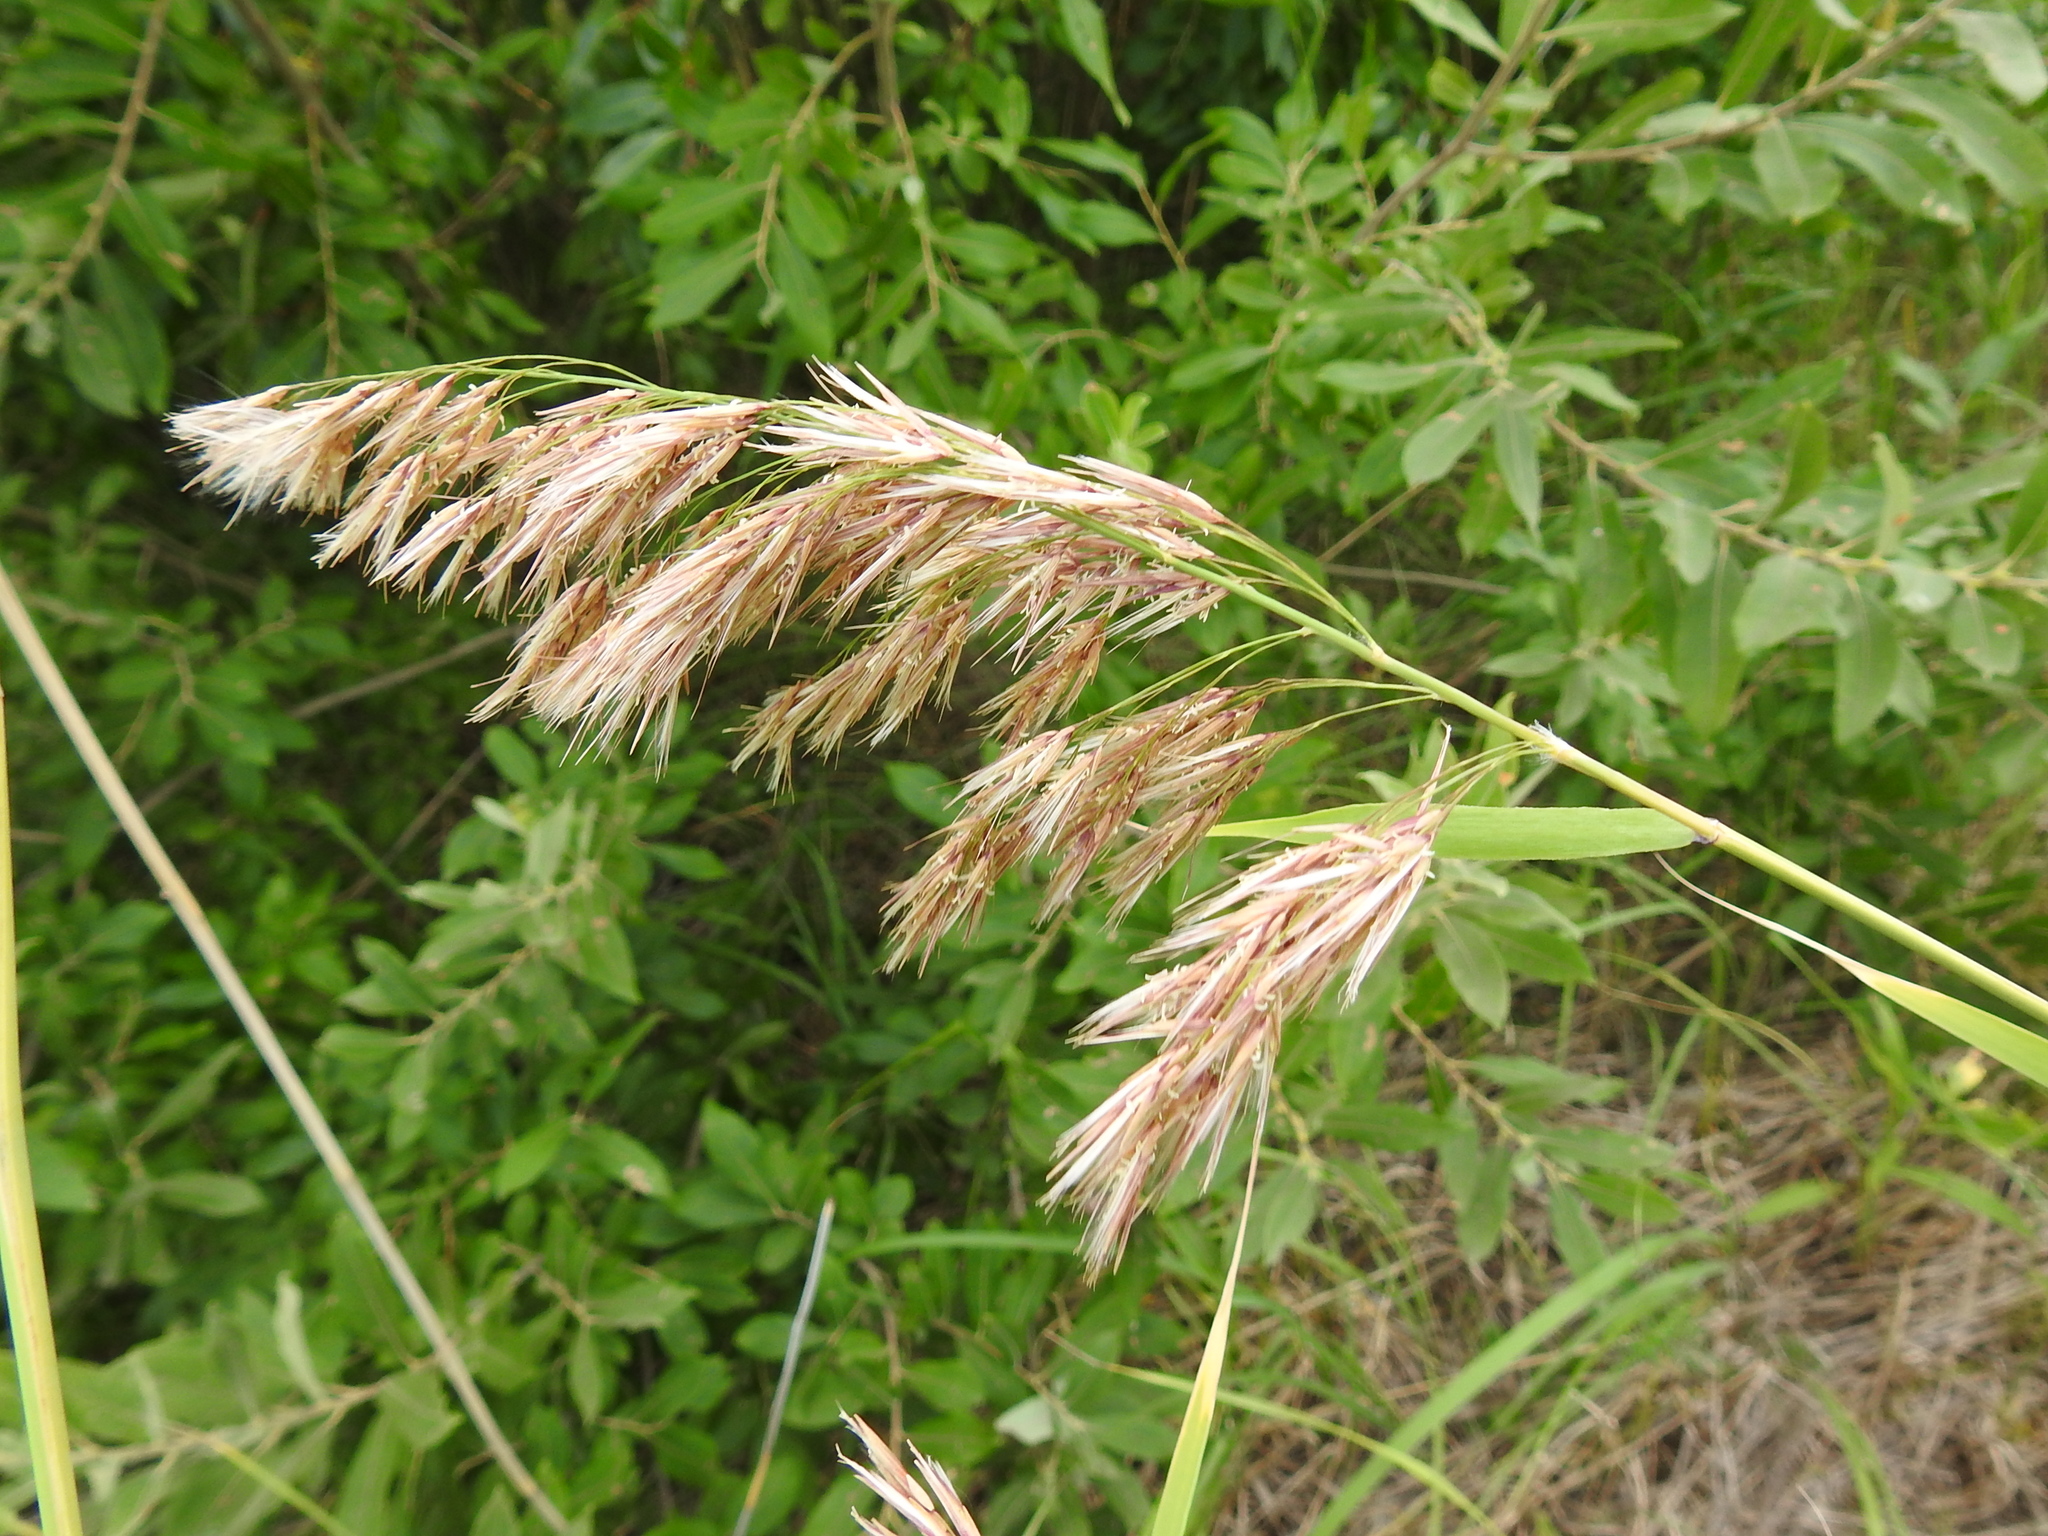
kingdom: Plantae
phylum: Tracheophyta
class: Liliopsida
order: Poales
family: Poaceae
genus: Phragmites
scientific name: Phragmites australis
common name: Common reed
